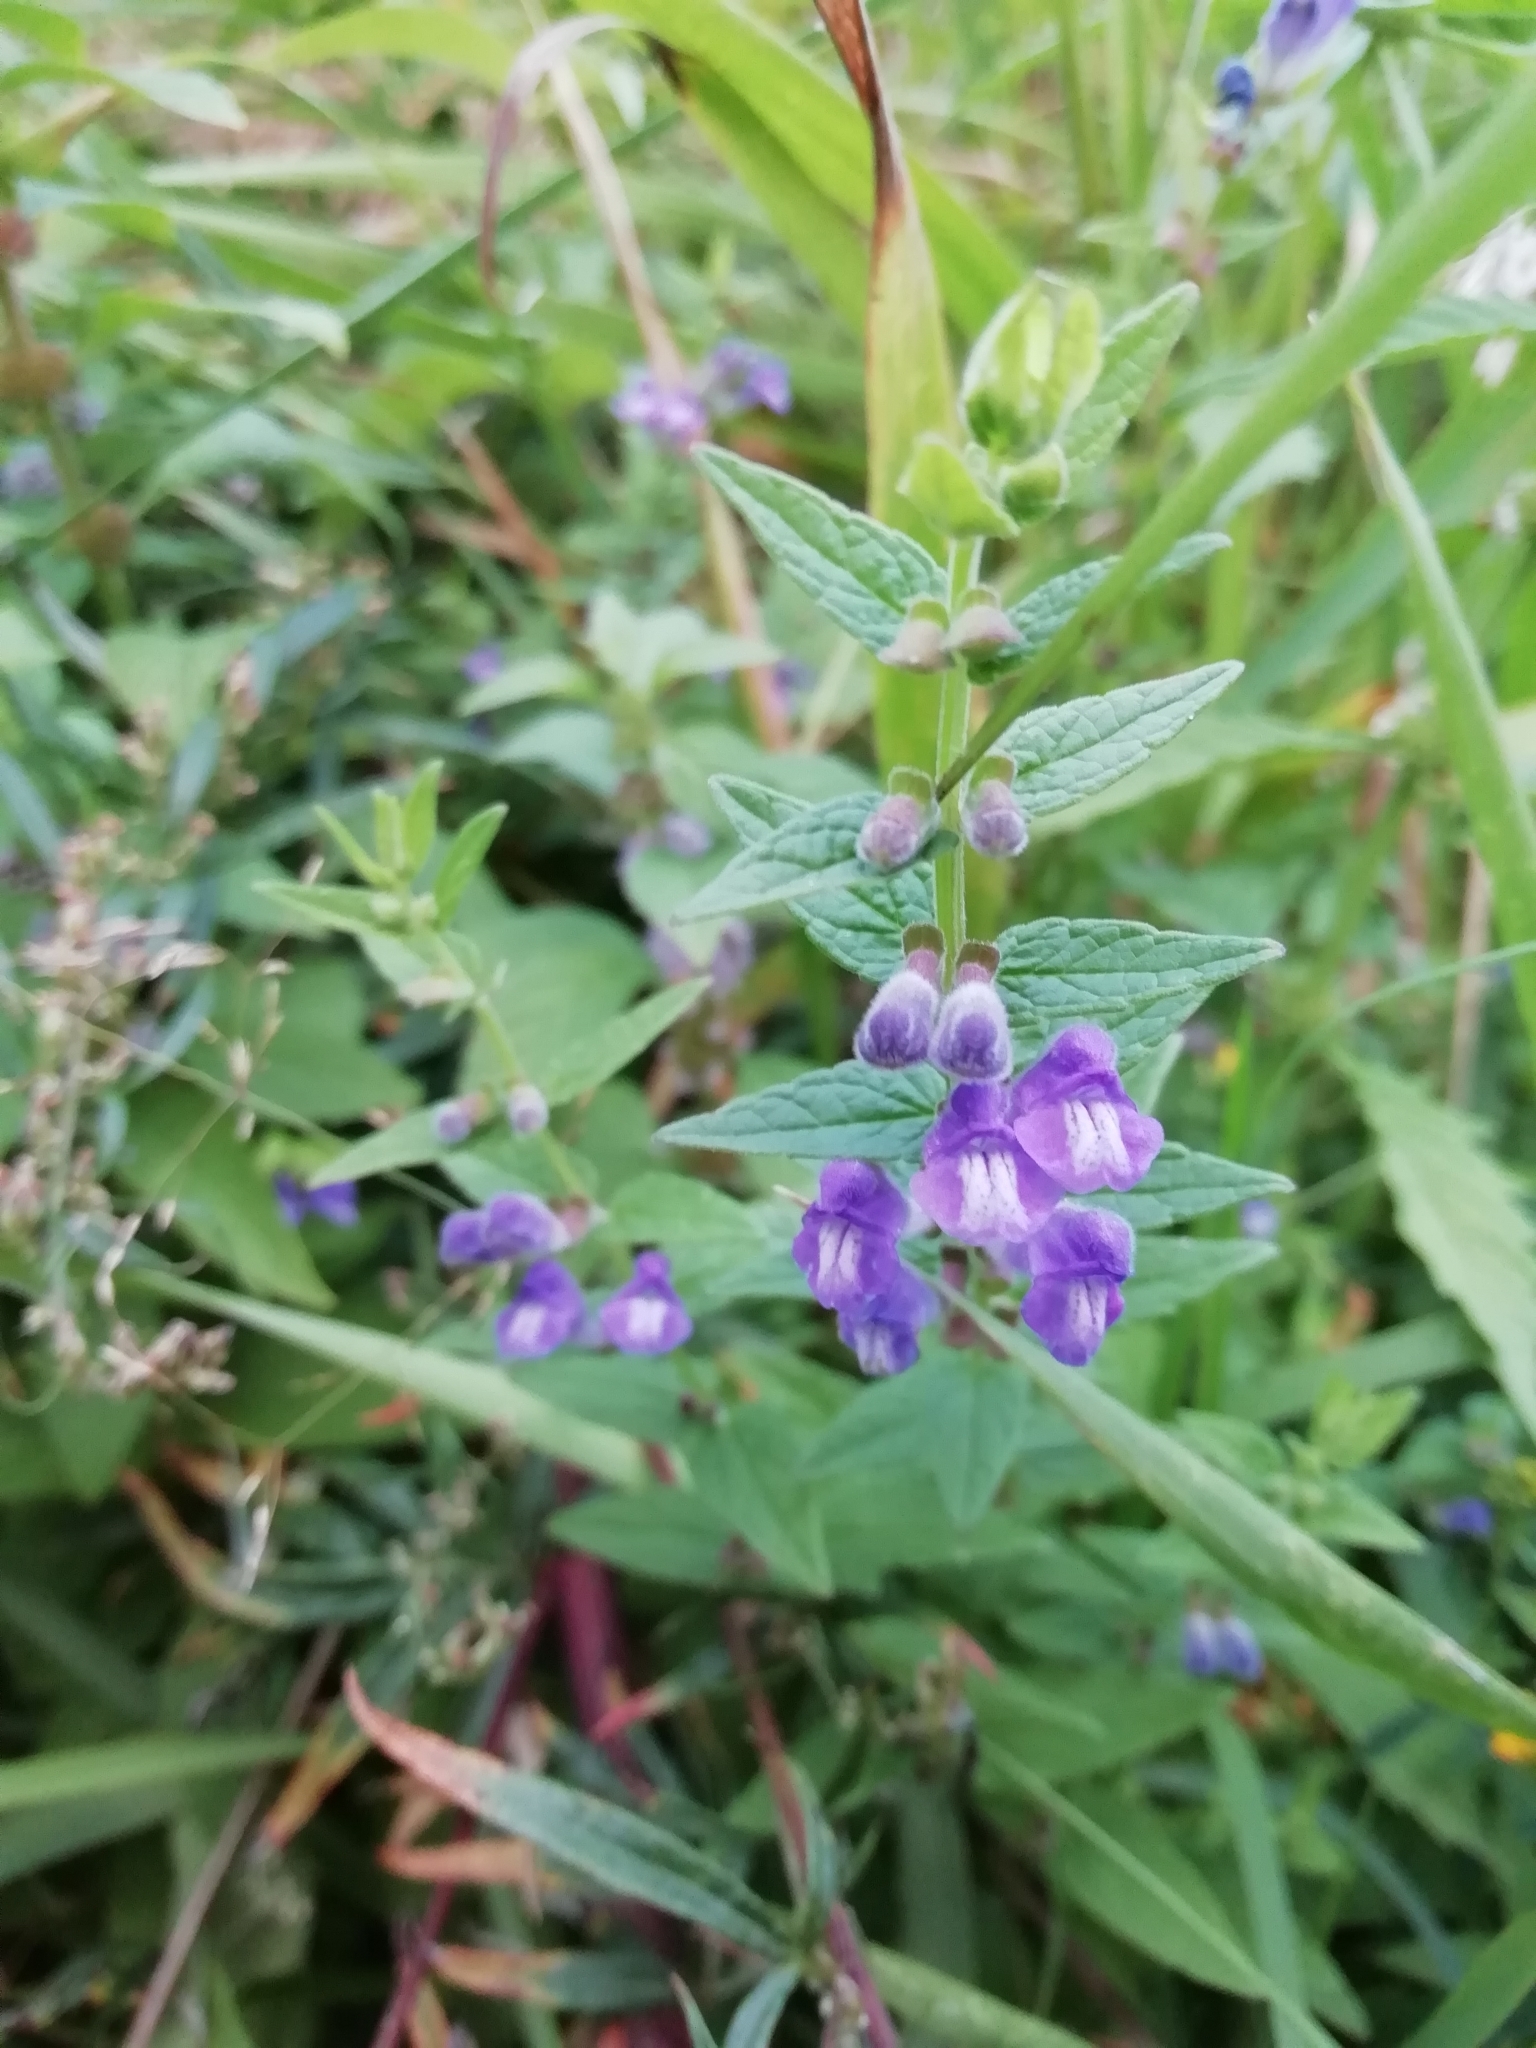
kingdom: Plantae
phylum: Tracheophyta
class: Magnoliopsida
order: Lamiales
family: Lamiaceae
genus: Scutellaria
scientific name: Scutellaria galericulata
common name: Skullcap
